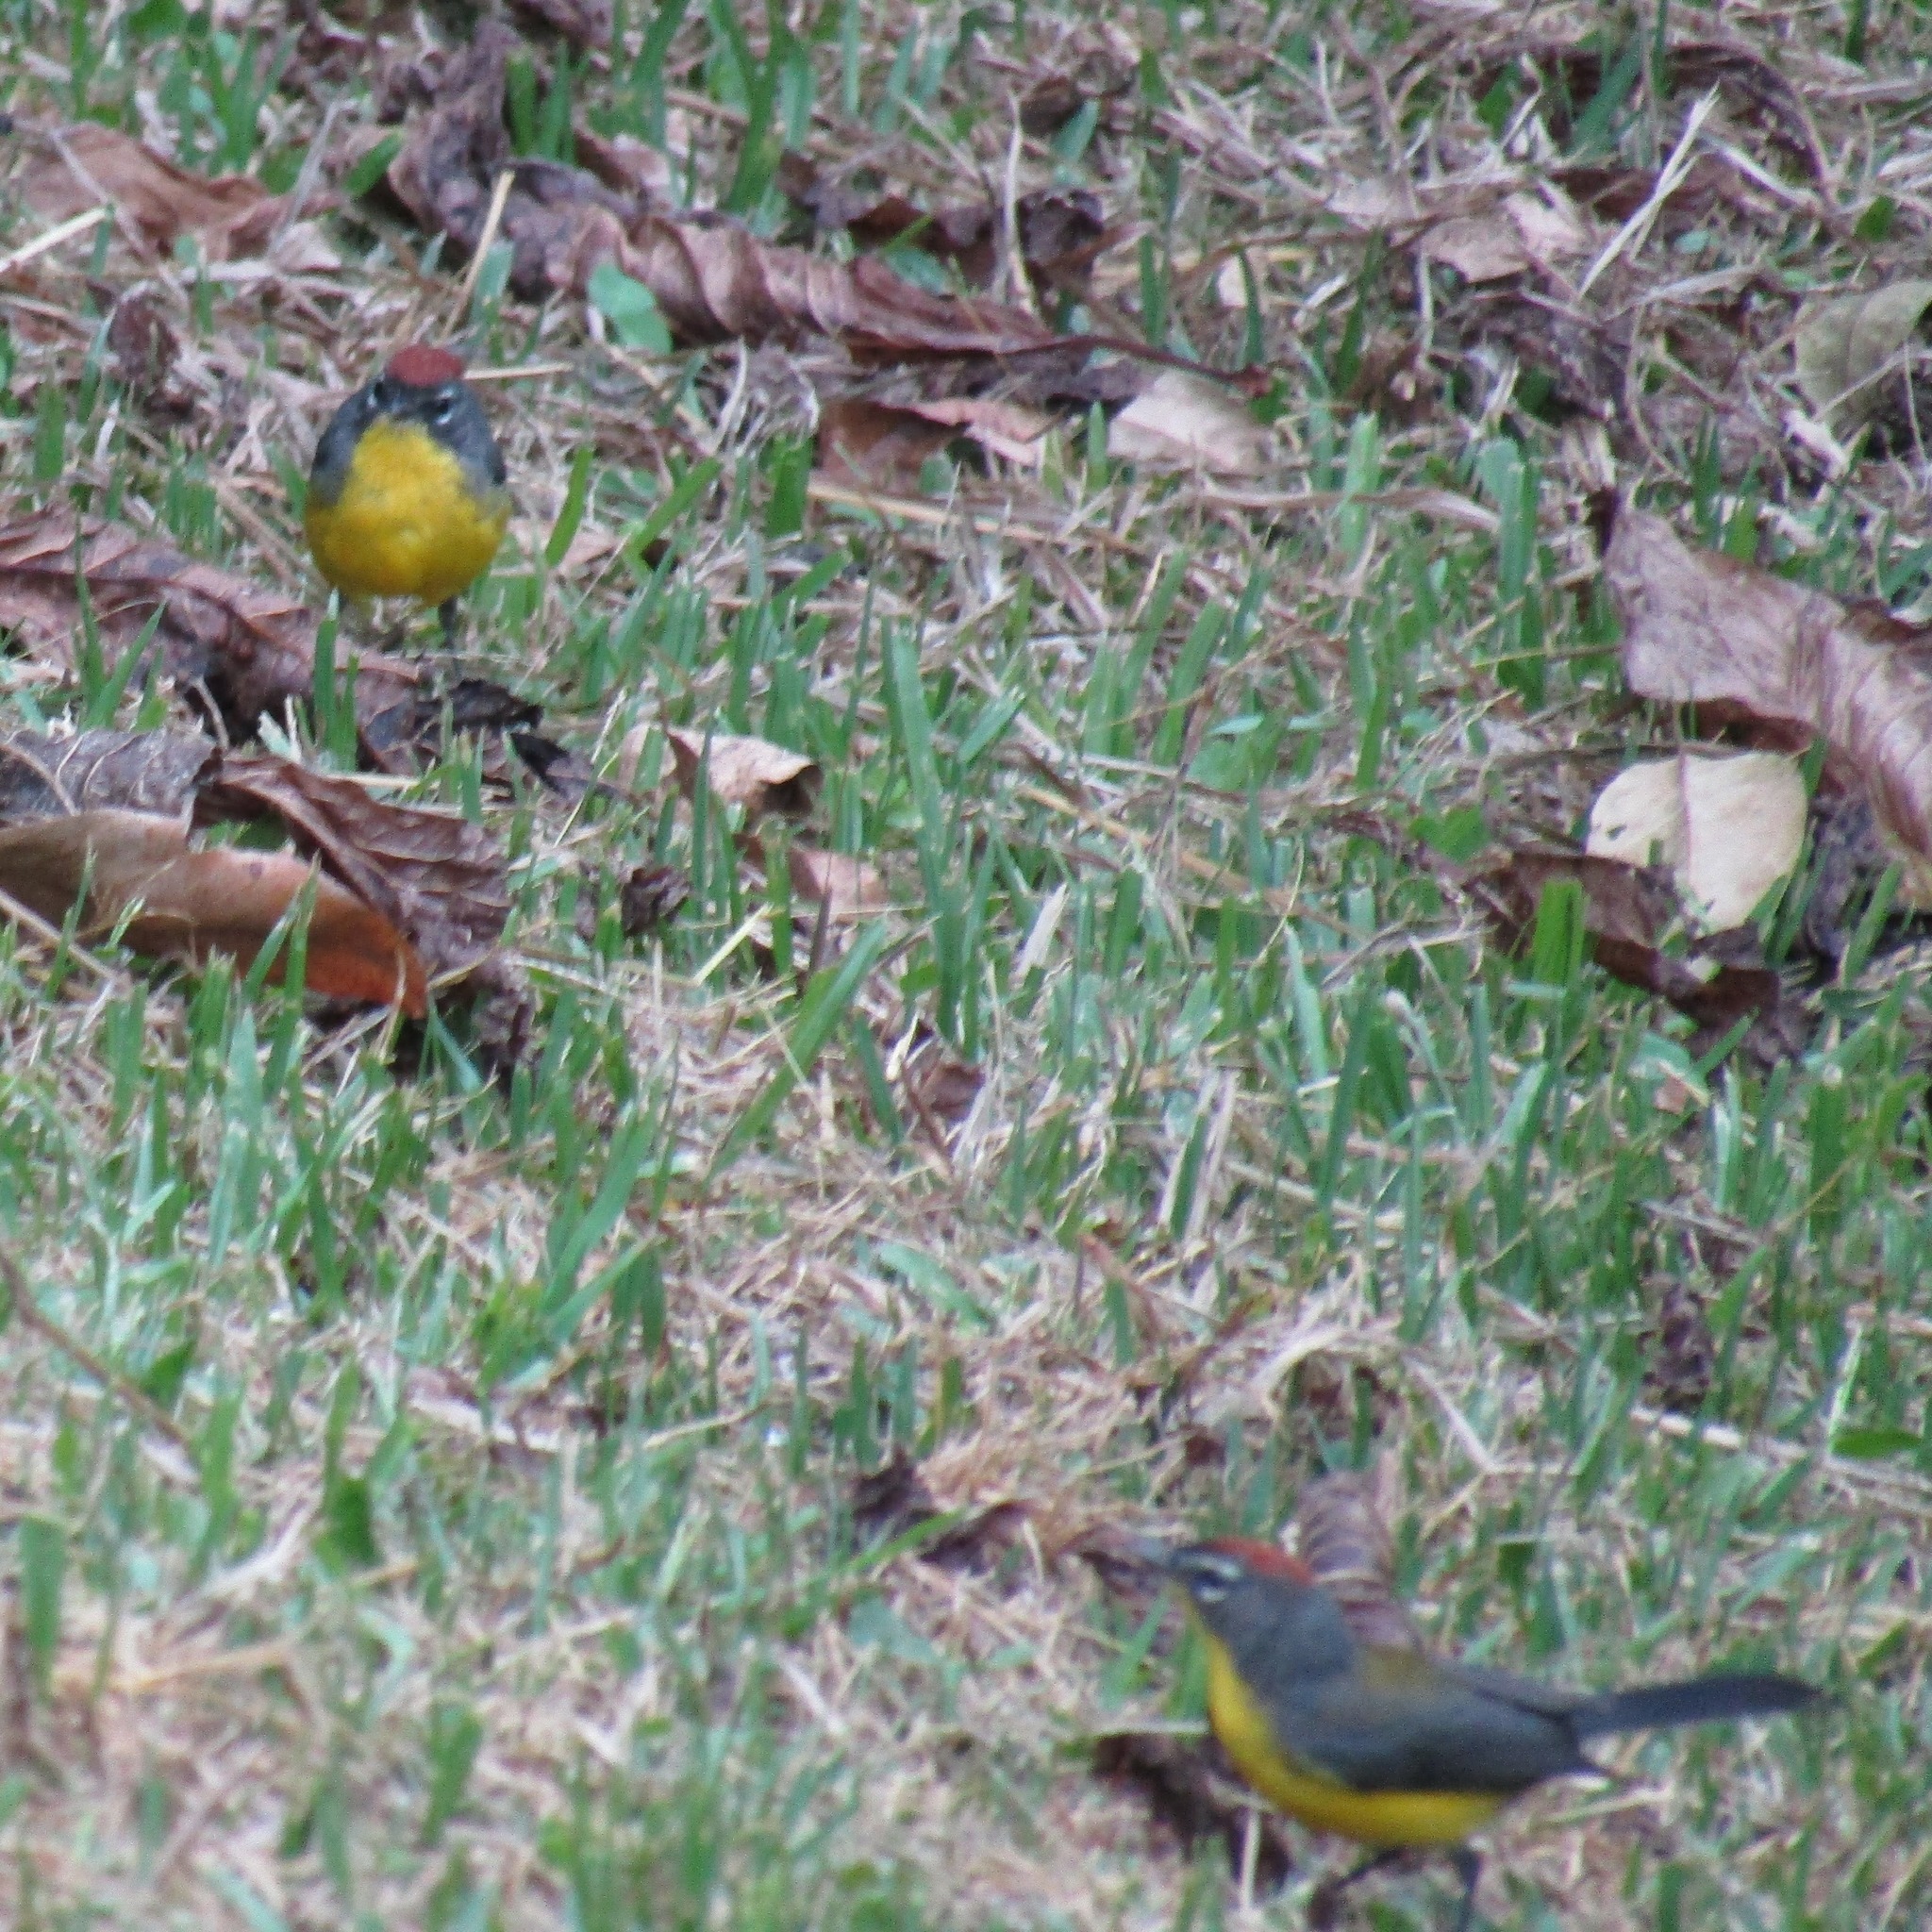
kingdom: Animalia
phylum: Chordata
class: Aves
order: Passeriformes
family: Parulidae
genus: Myioborus
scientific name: Myioborus brunniceps
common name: Brown-capped whitestart
